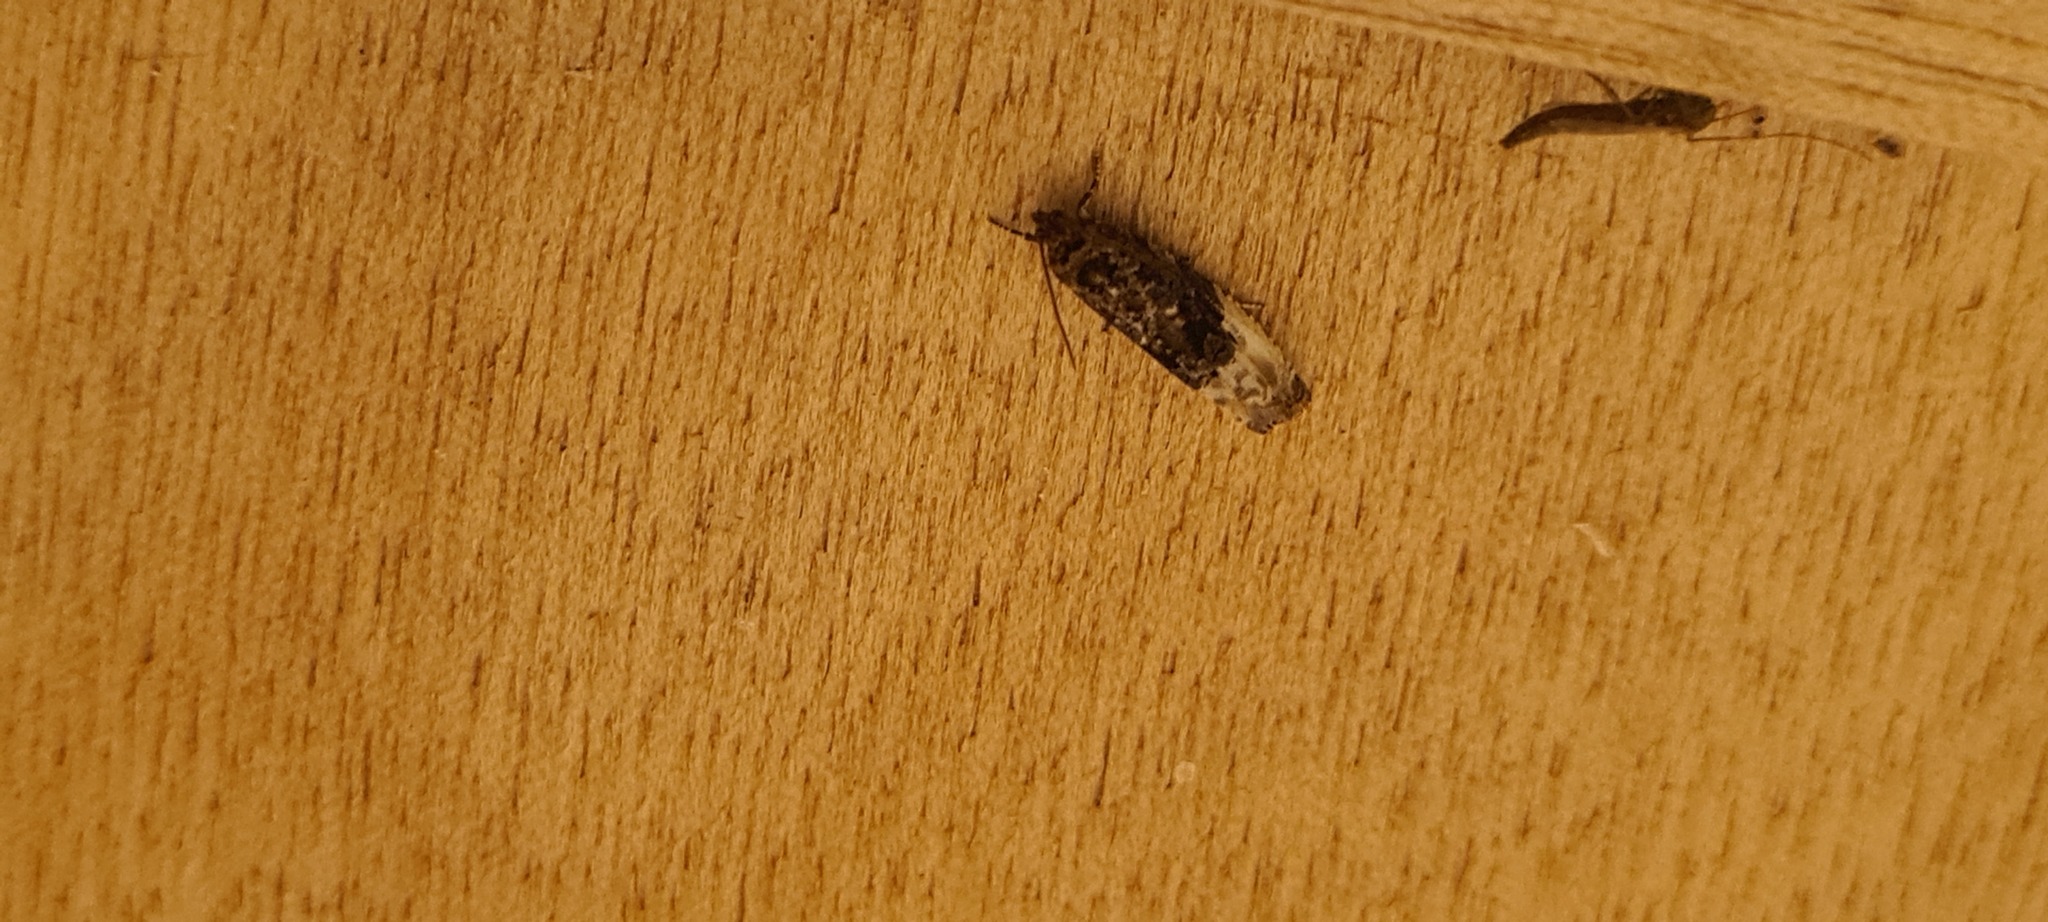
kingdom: Animalia
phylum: Arthropoda
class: Insecta
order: Lepidoptera
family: Tortricidae
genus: Hedya
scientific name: Hedya nubiferana
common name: Marbled orchard tortrix
